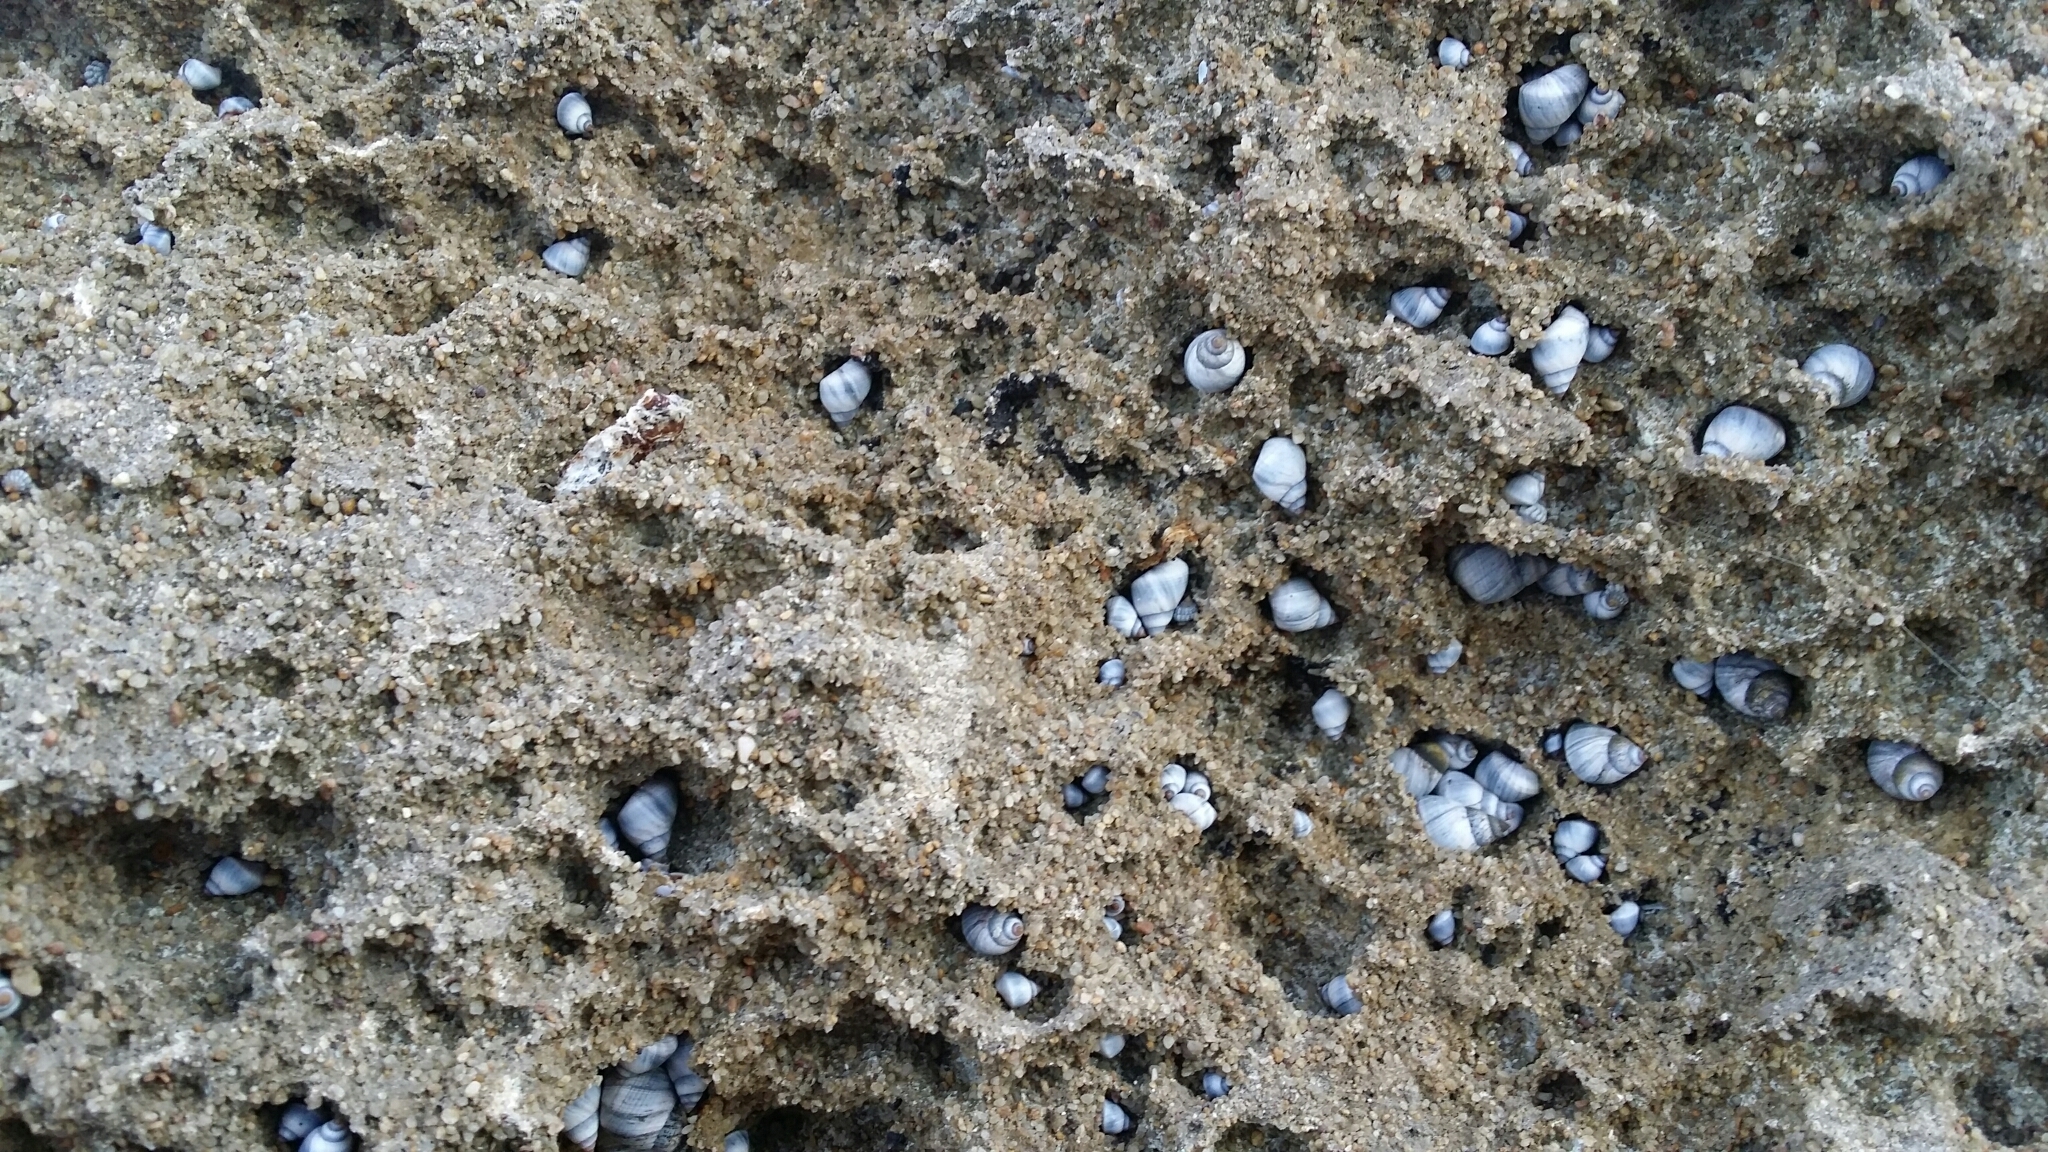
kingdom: Animalia
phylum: Mollusca
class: Gastropoda
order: Littorinimorpha
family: Littorinidae
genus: Austrolittorina
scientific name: Austrolittorina unifasciata
